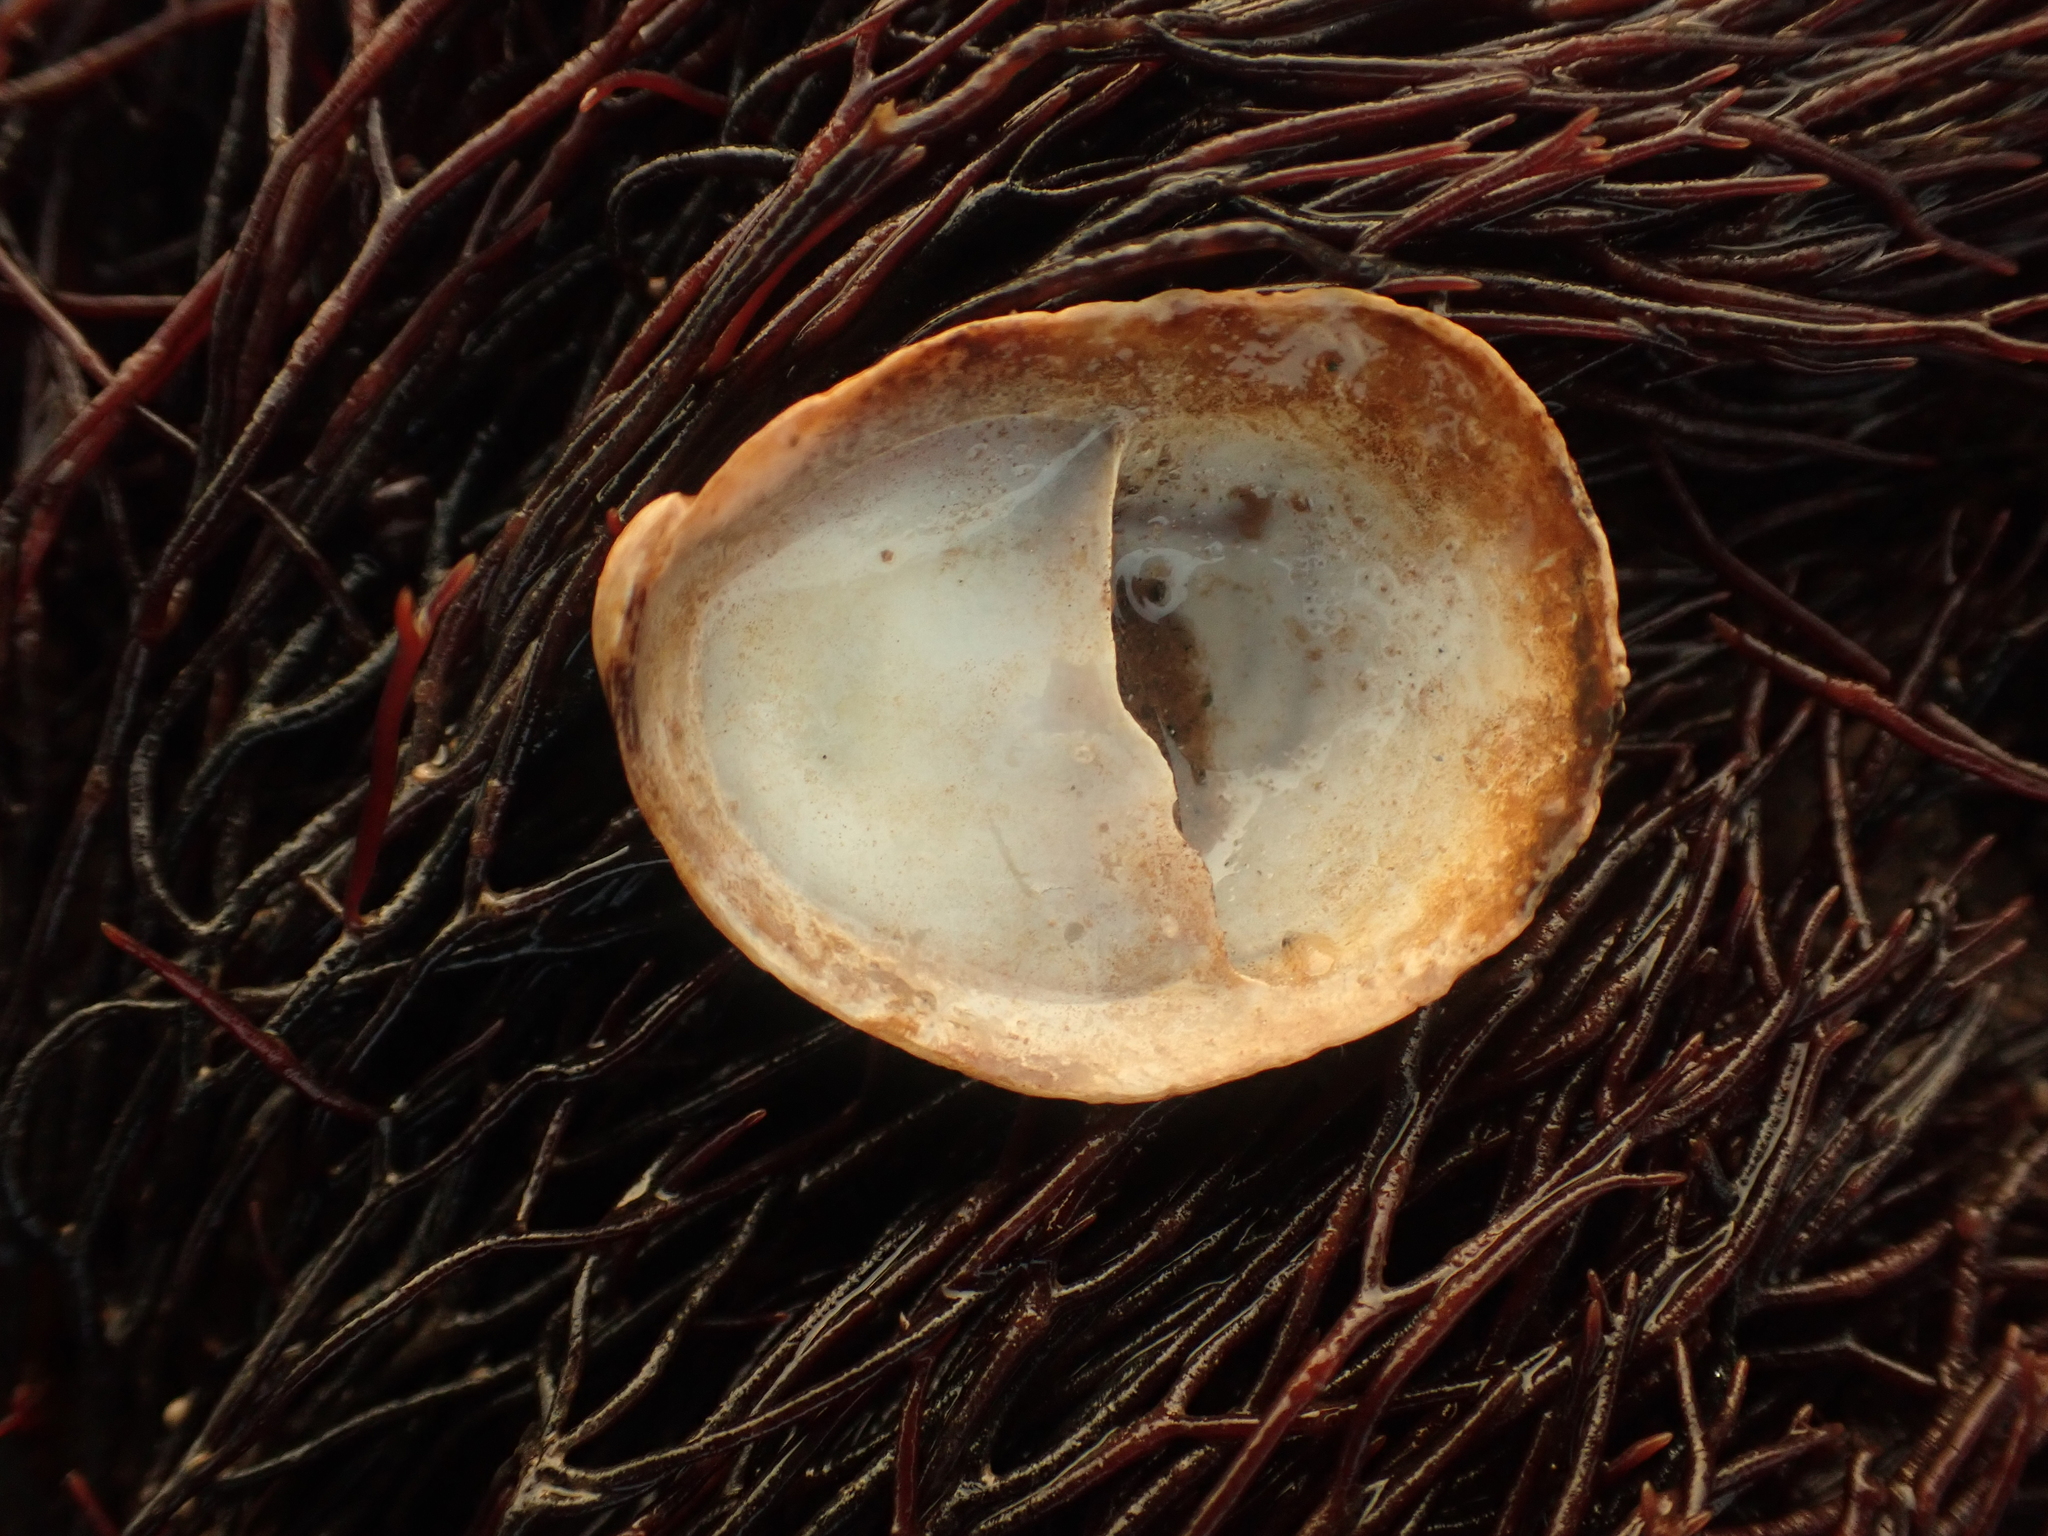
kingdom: Animalia
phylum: Mollusca
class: Gastropoda
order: Littorinimorpha
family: Calyptraeidae
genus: Crepidula
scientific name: Crepidula fornicata
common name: Slipper limpet
